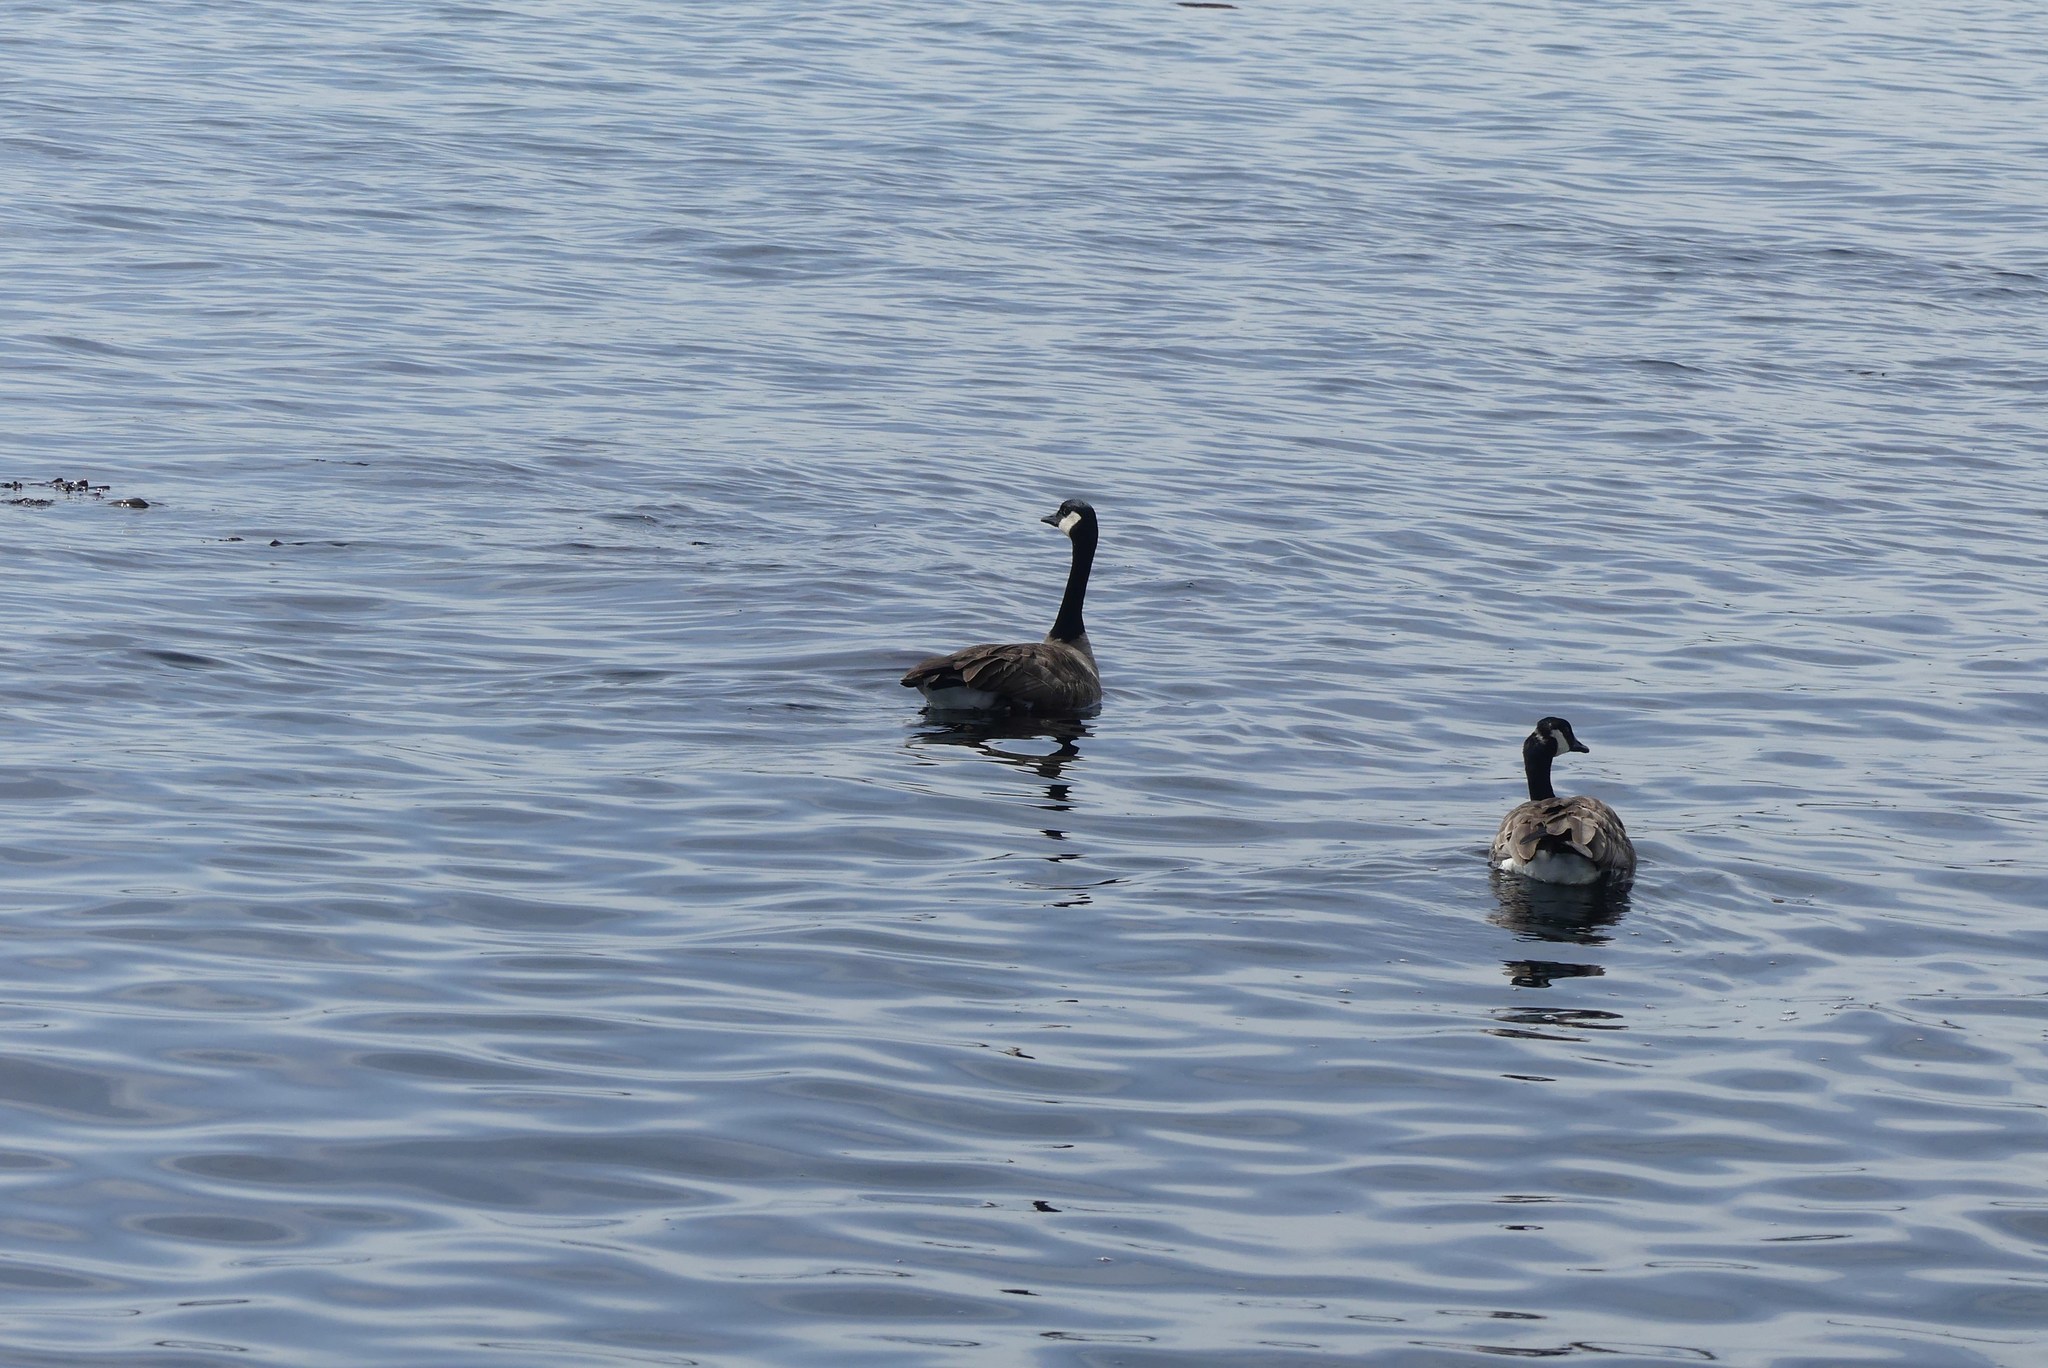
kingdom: Animalia
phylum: Chordata
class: Aves
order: Anseriformes
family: Anatidae
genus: Branta
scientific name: Branta canadensis
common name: Canada goose
